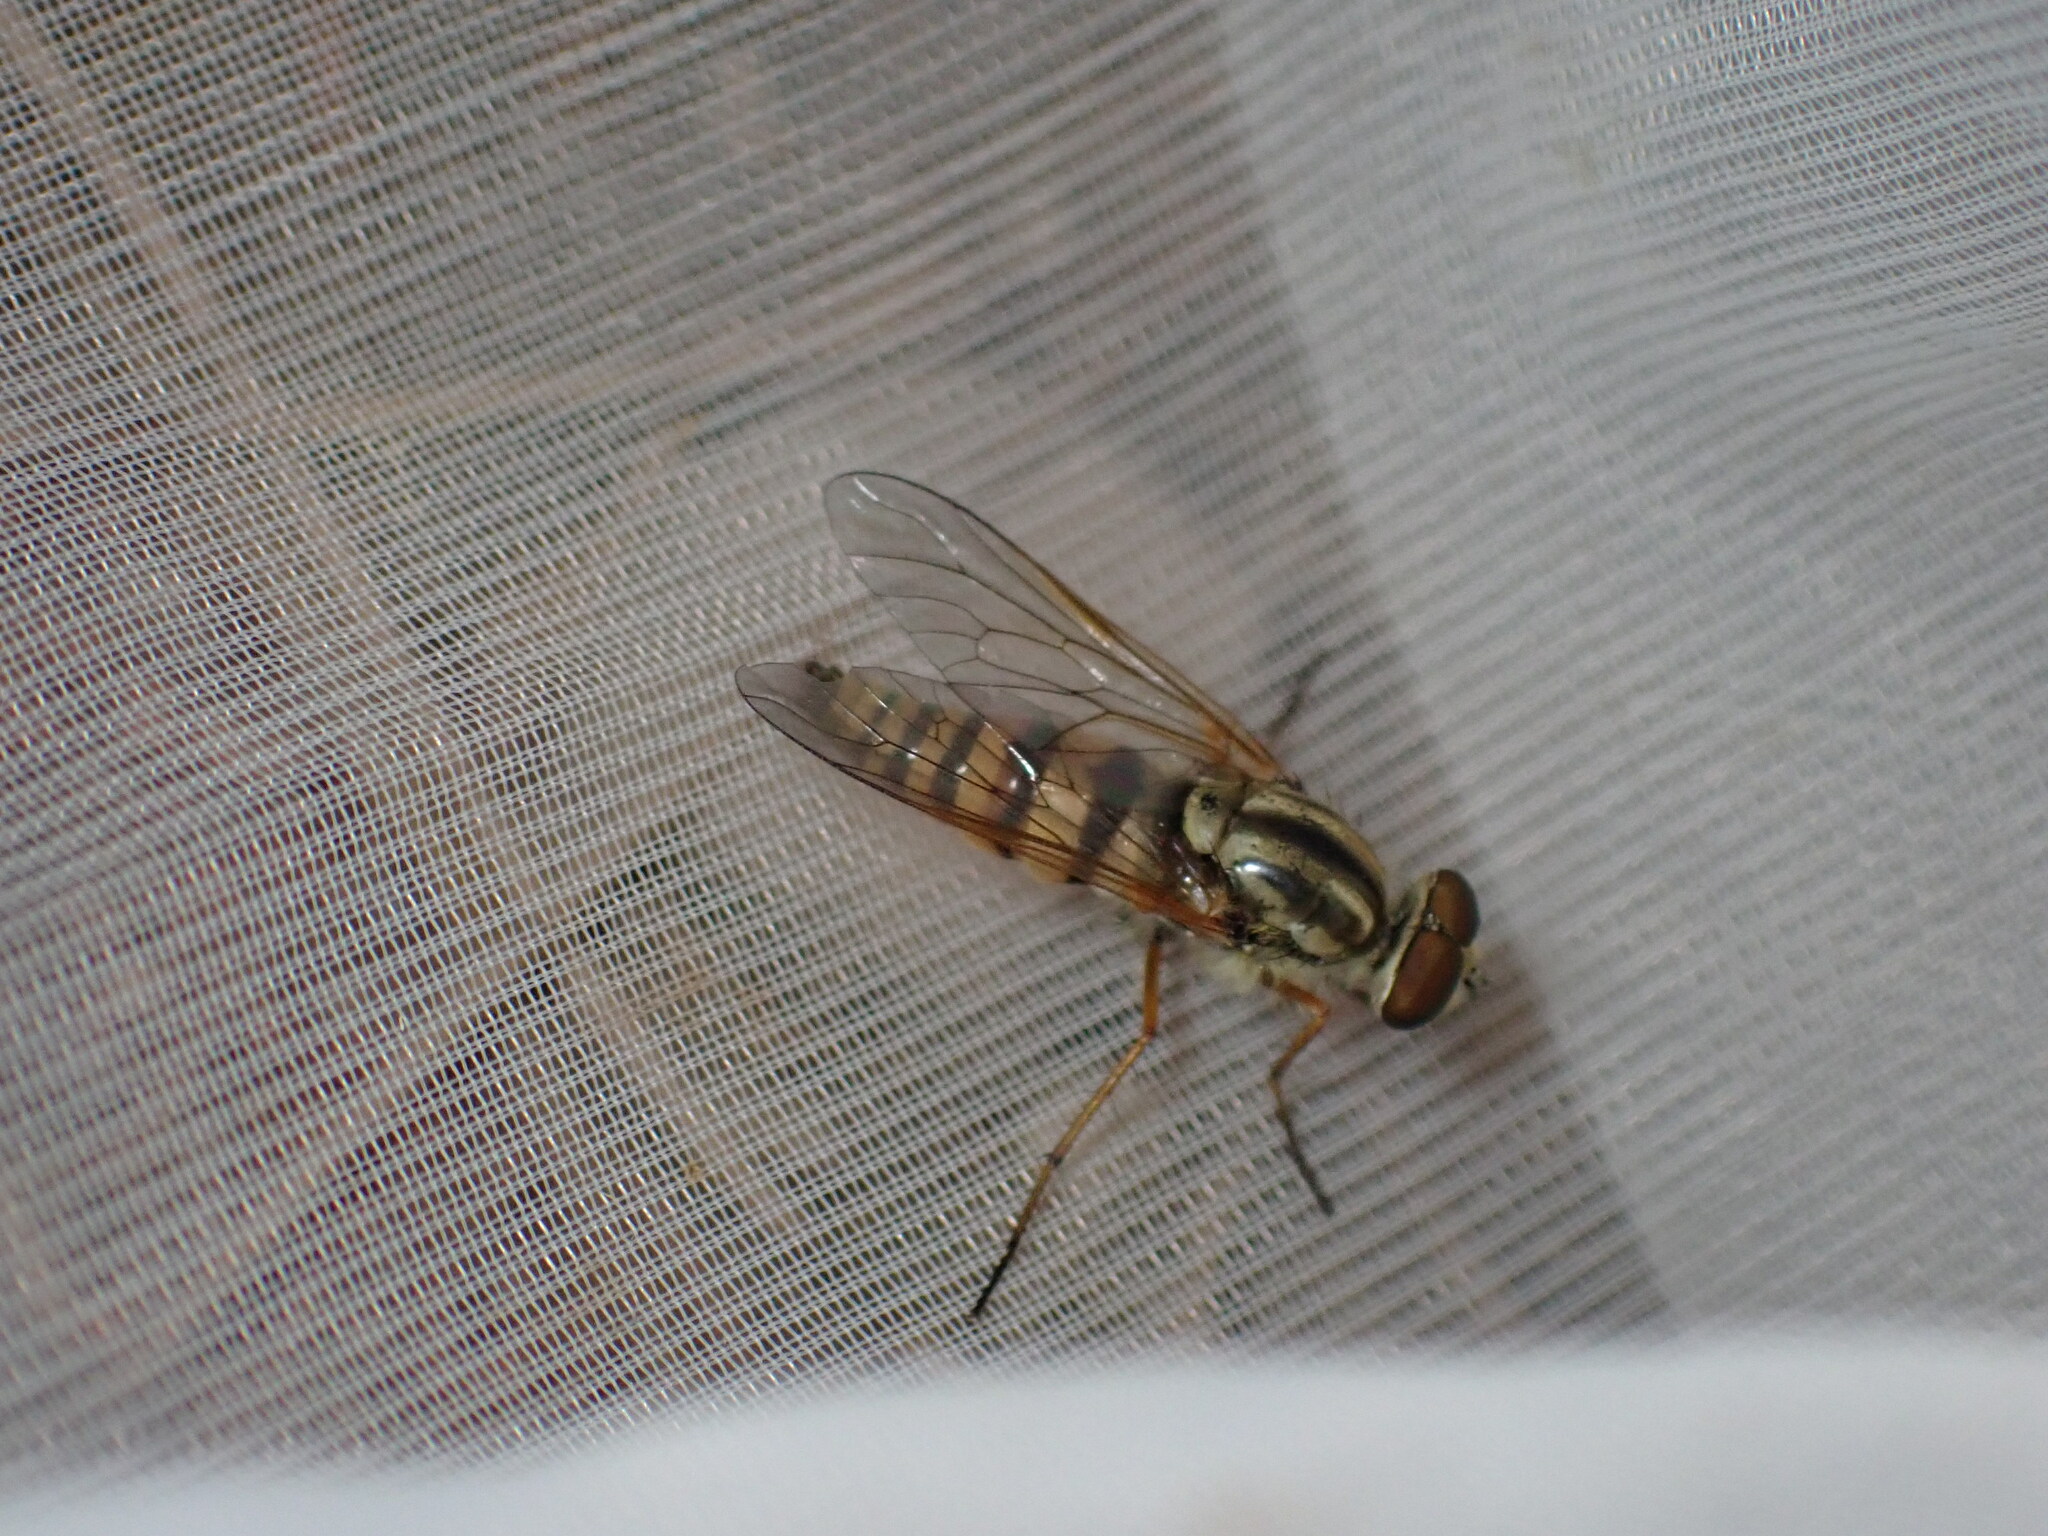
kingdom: Animalia
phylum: Arthropoda
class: Insecta
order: Diptera
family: Therevidae
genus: Thereva
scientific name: Thereva aurata
